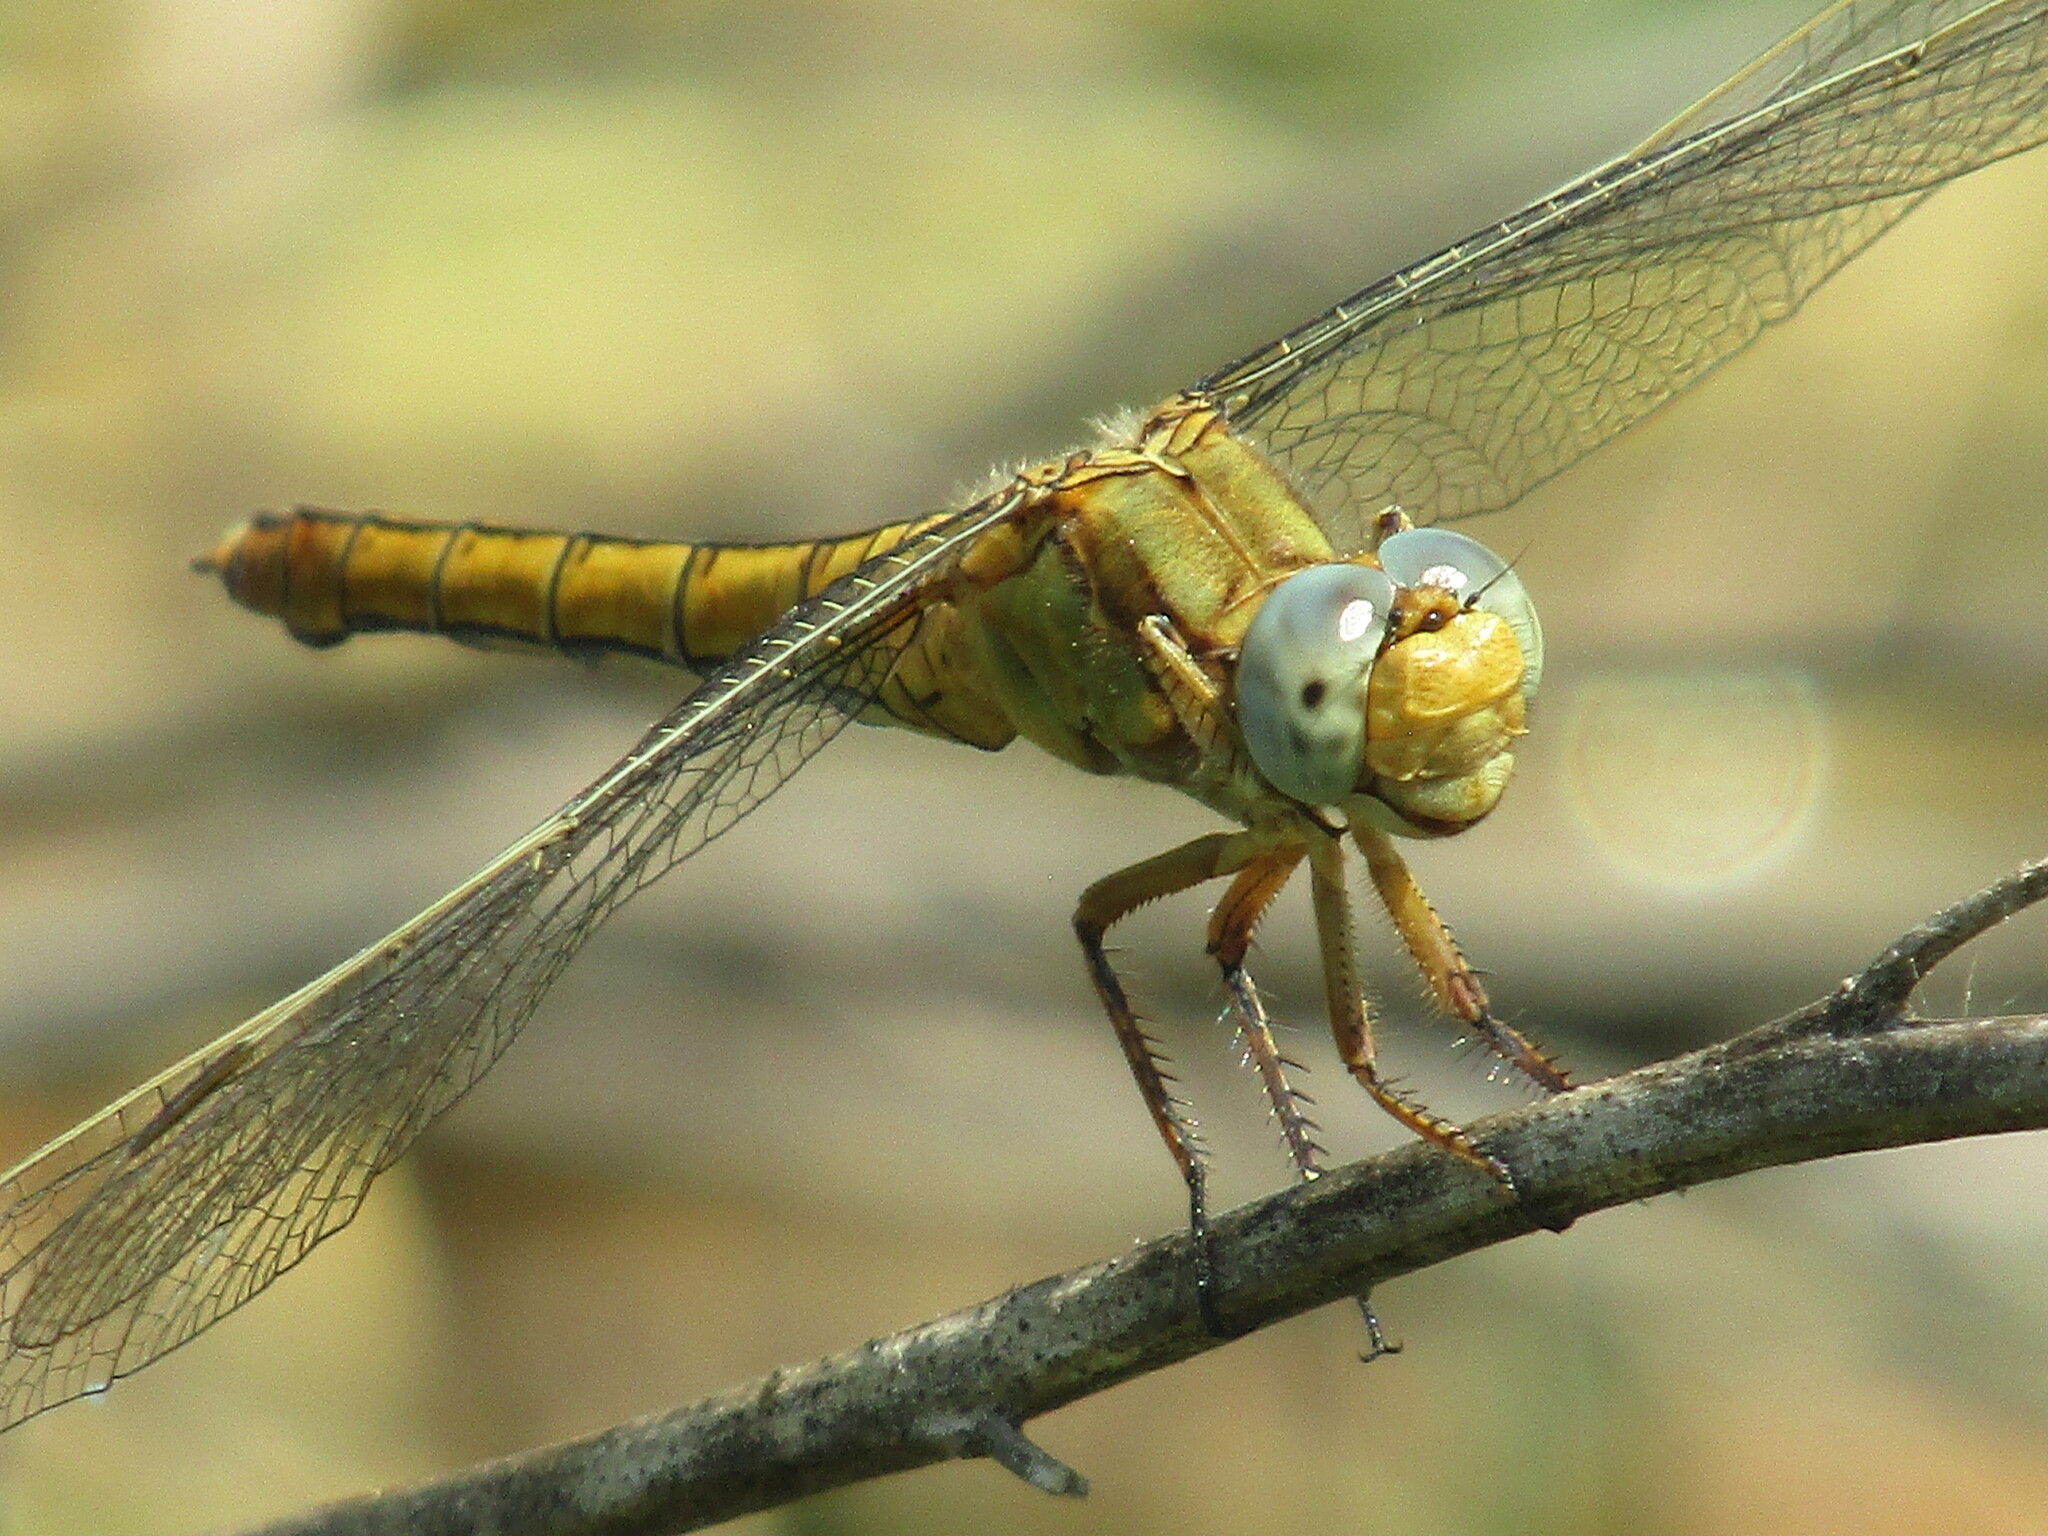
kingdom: Animalia
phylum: Arthropoda
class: Insecta
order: Odonata
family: Libellulidae
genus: Orthetrum
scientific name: Orthetrum coerulescens
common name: Keeled skimmer
